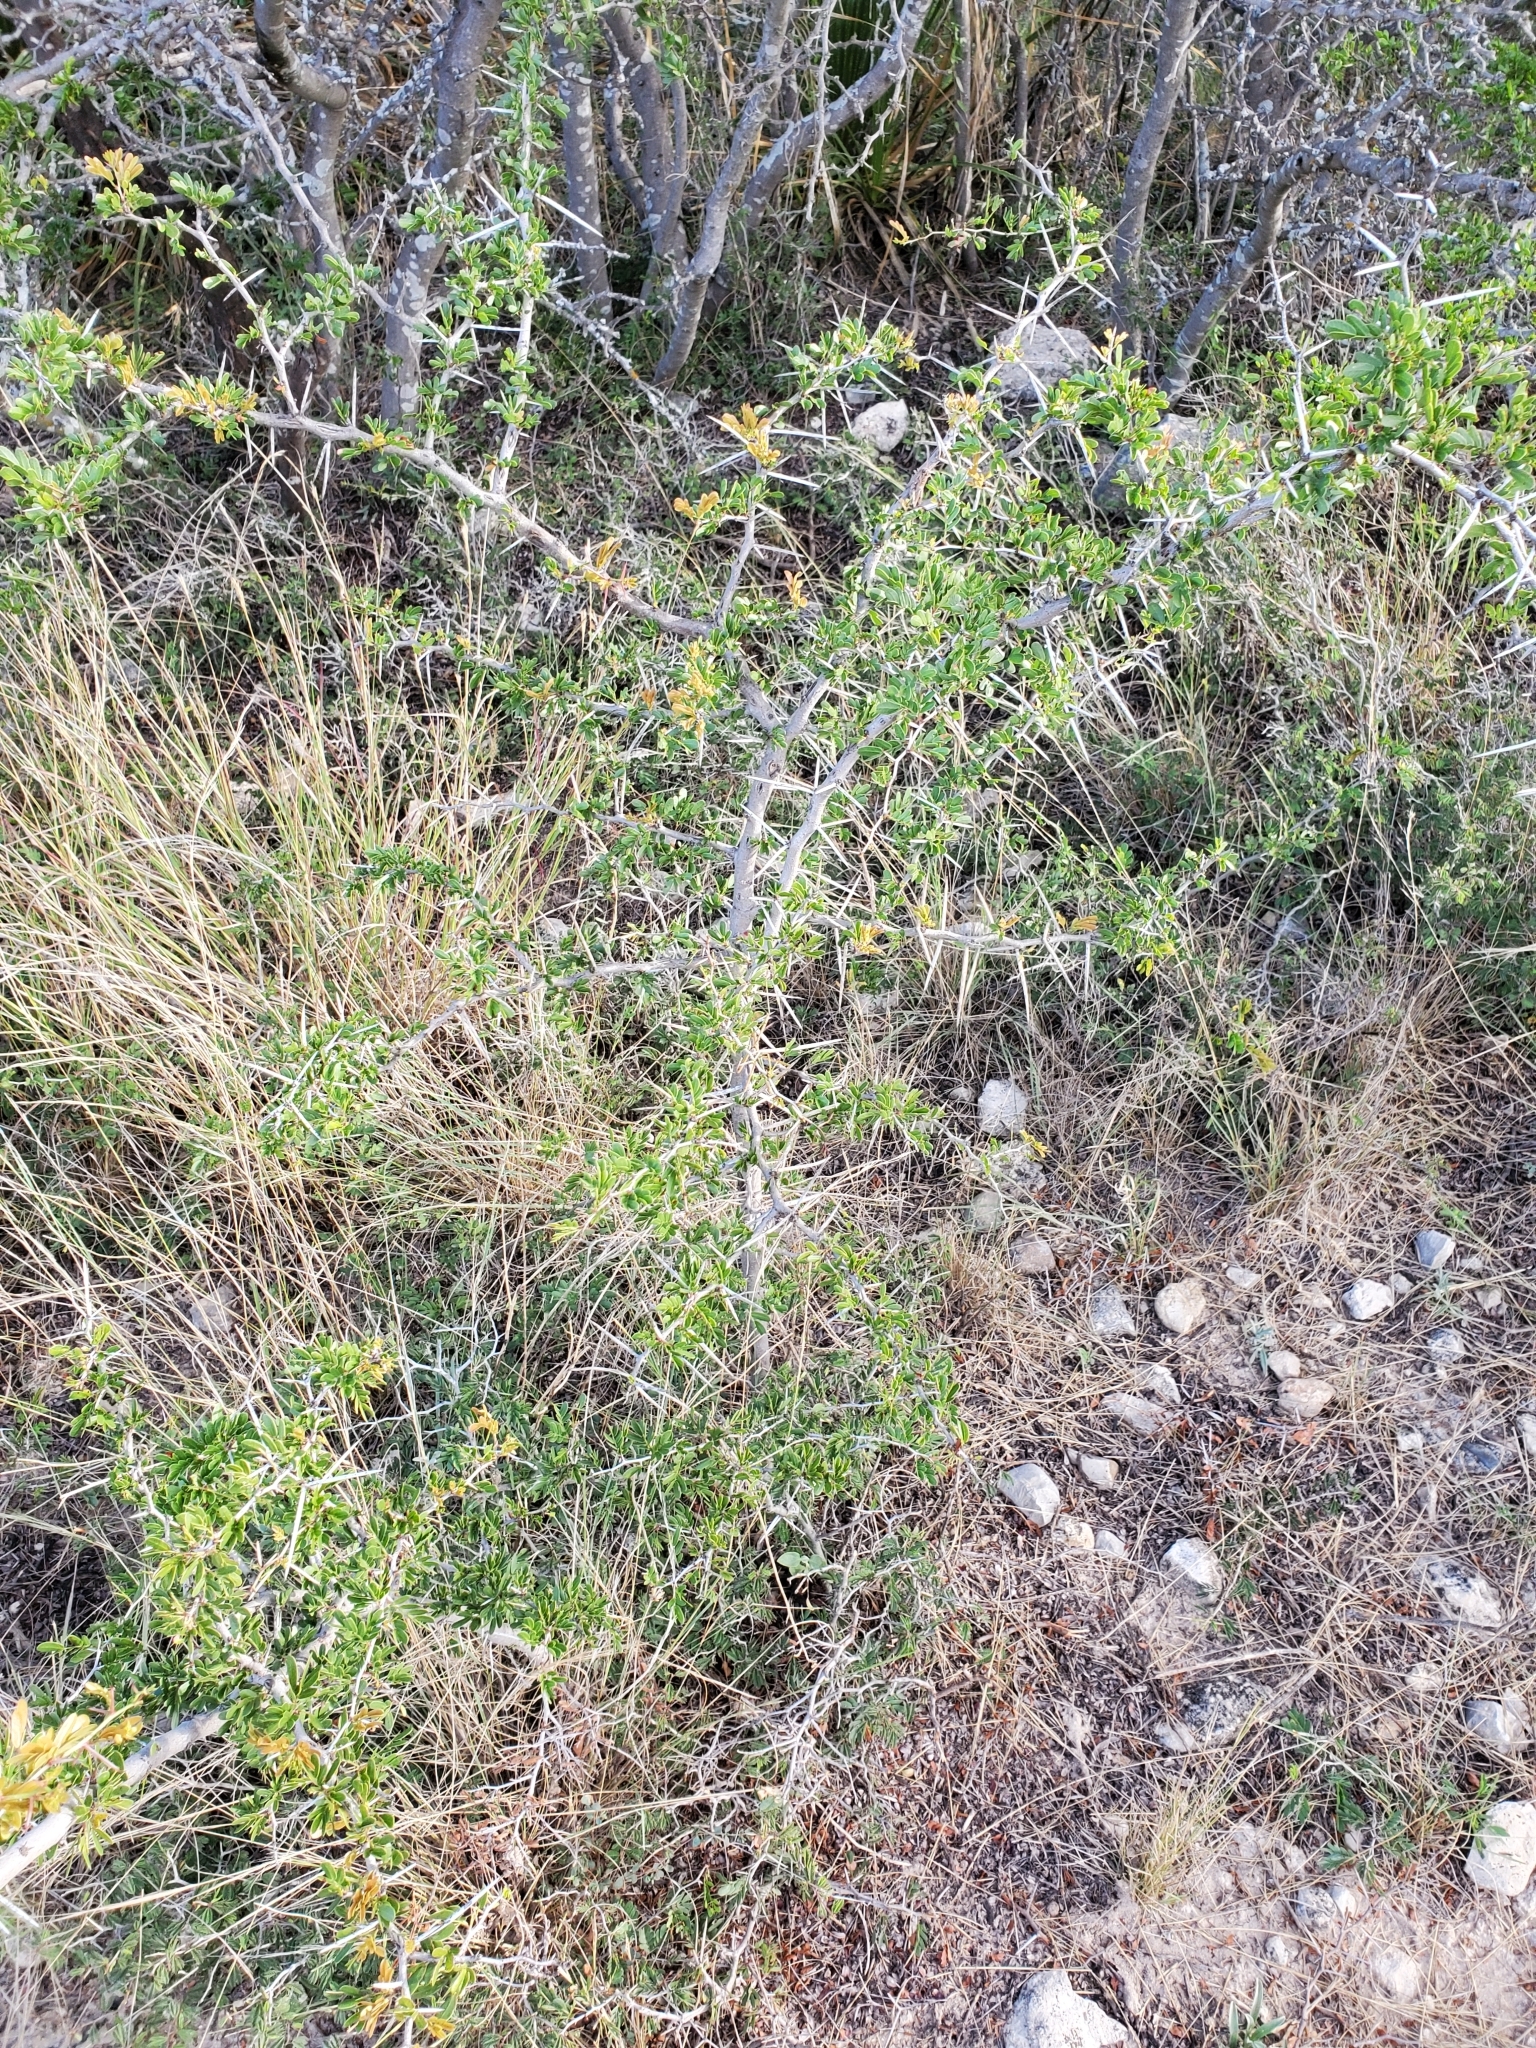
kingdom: Plantae
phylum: Tracheophyta
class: Magnoliopsida
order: Fabales
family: Fabaceae
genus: Vachellia
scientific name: Vachellia rigidula
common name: Blackbrush
